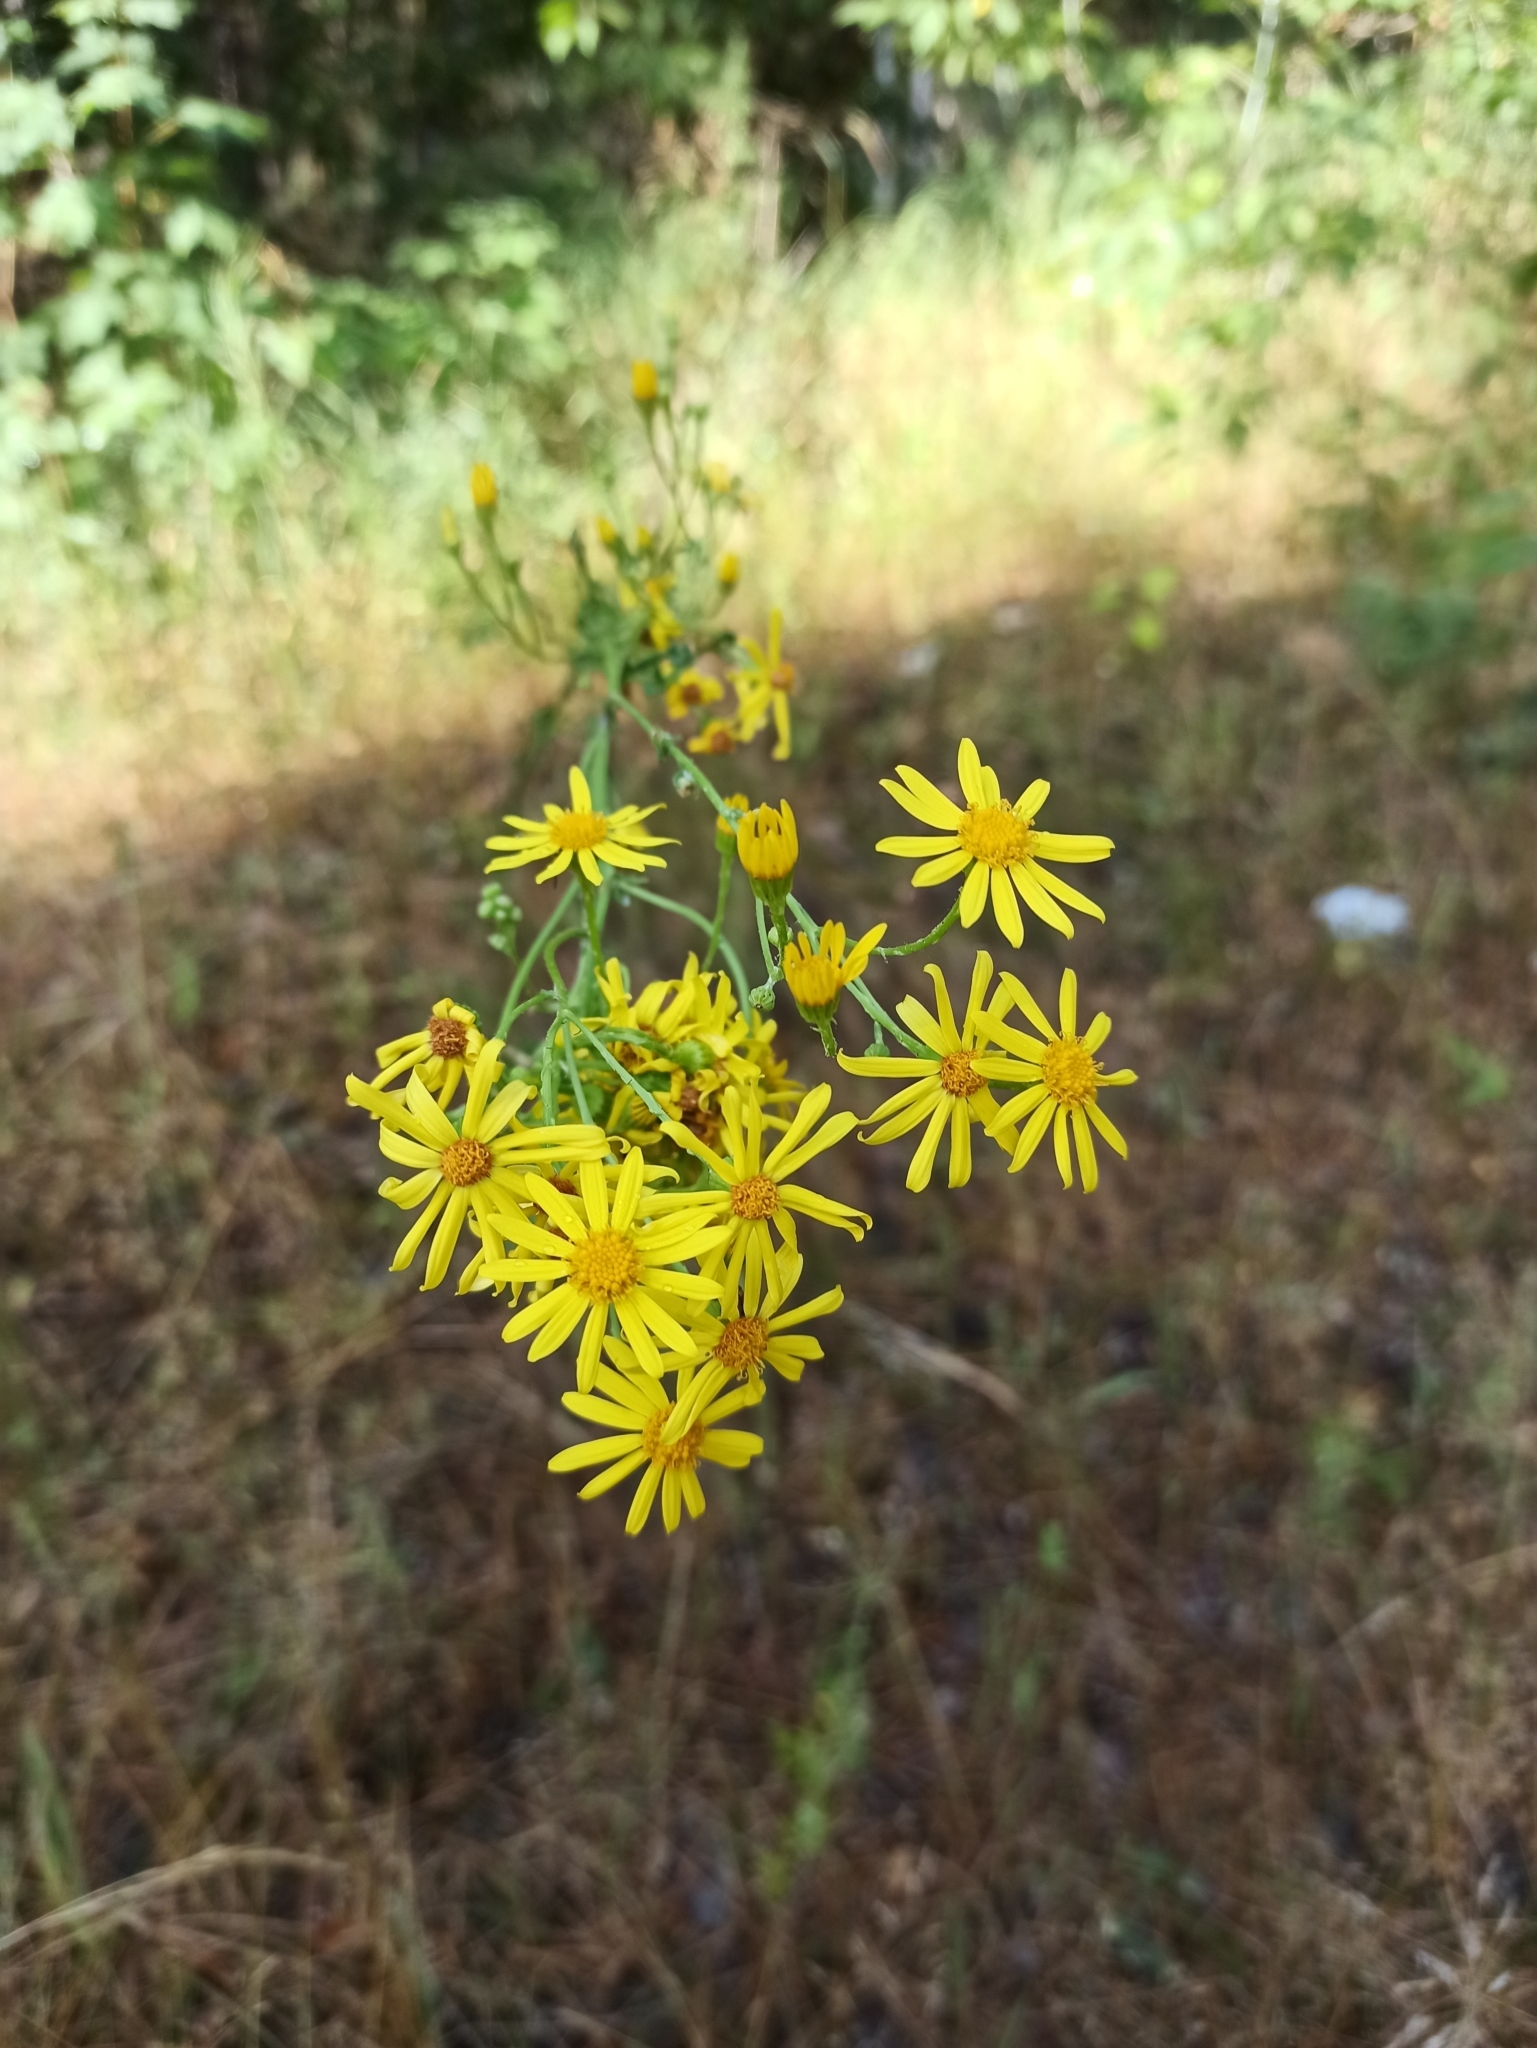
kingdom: Plantae
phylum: Tracheophyta
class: Magnoliopsida
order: Asterales
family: Asteraceae
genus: Jacobaea
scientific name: Jacobaea vulgaris
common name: Stinking willie
